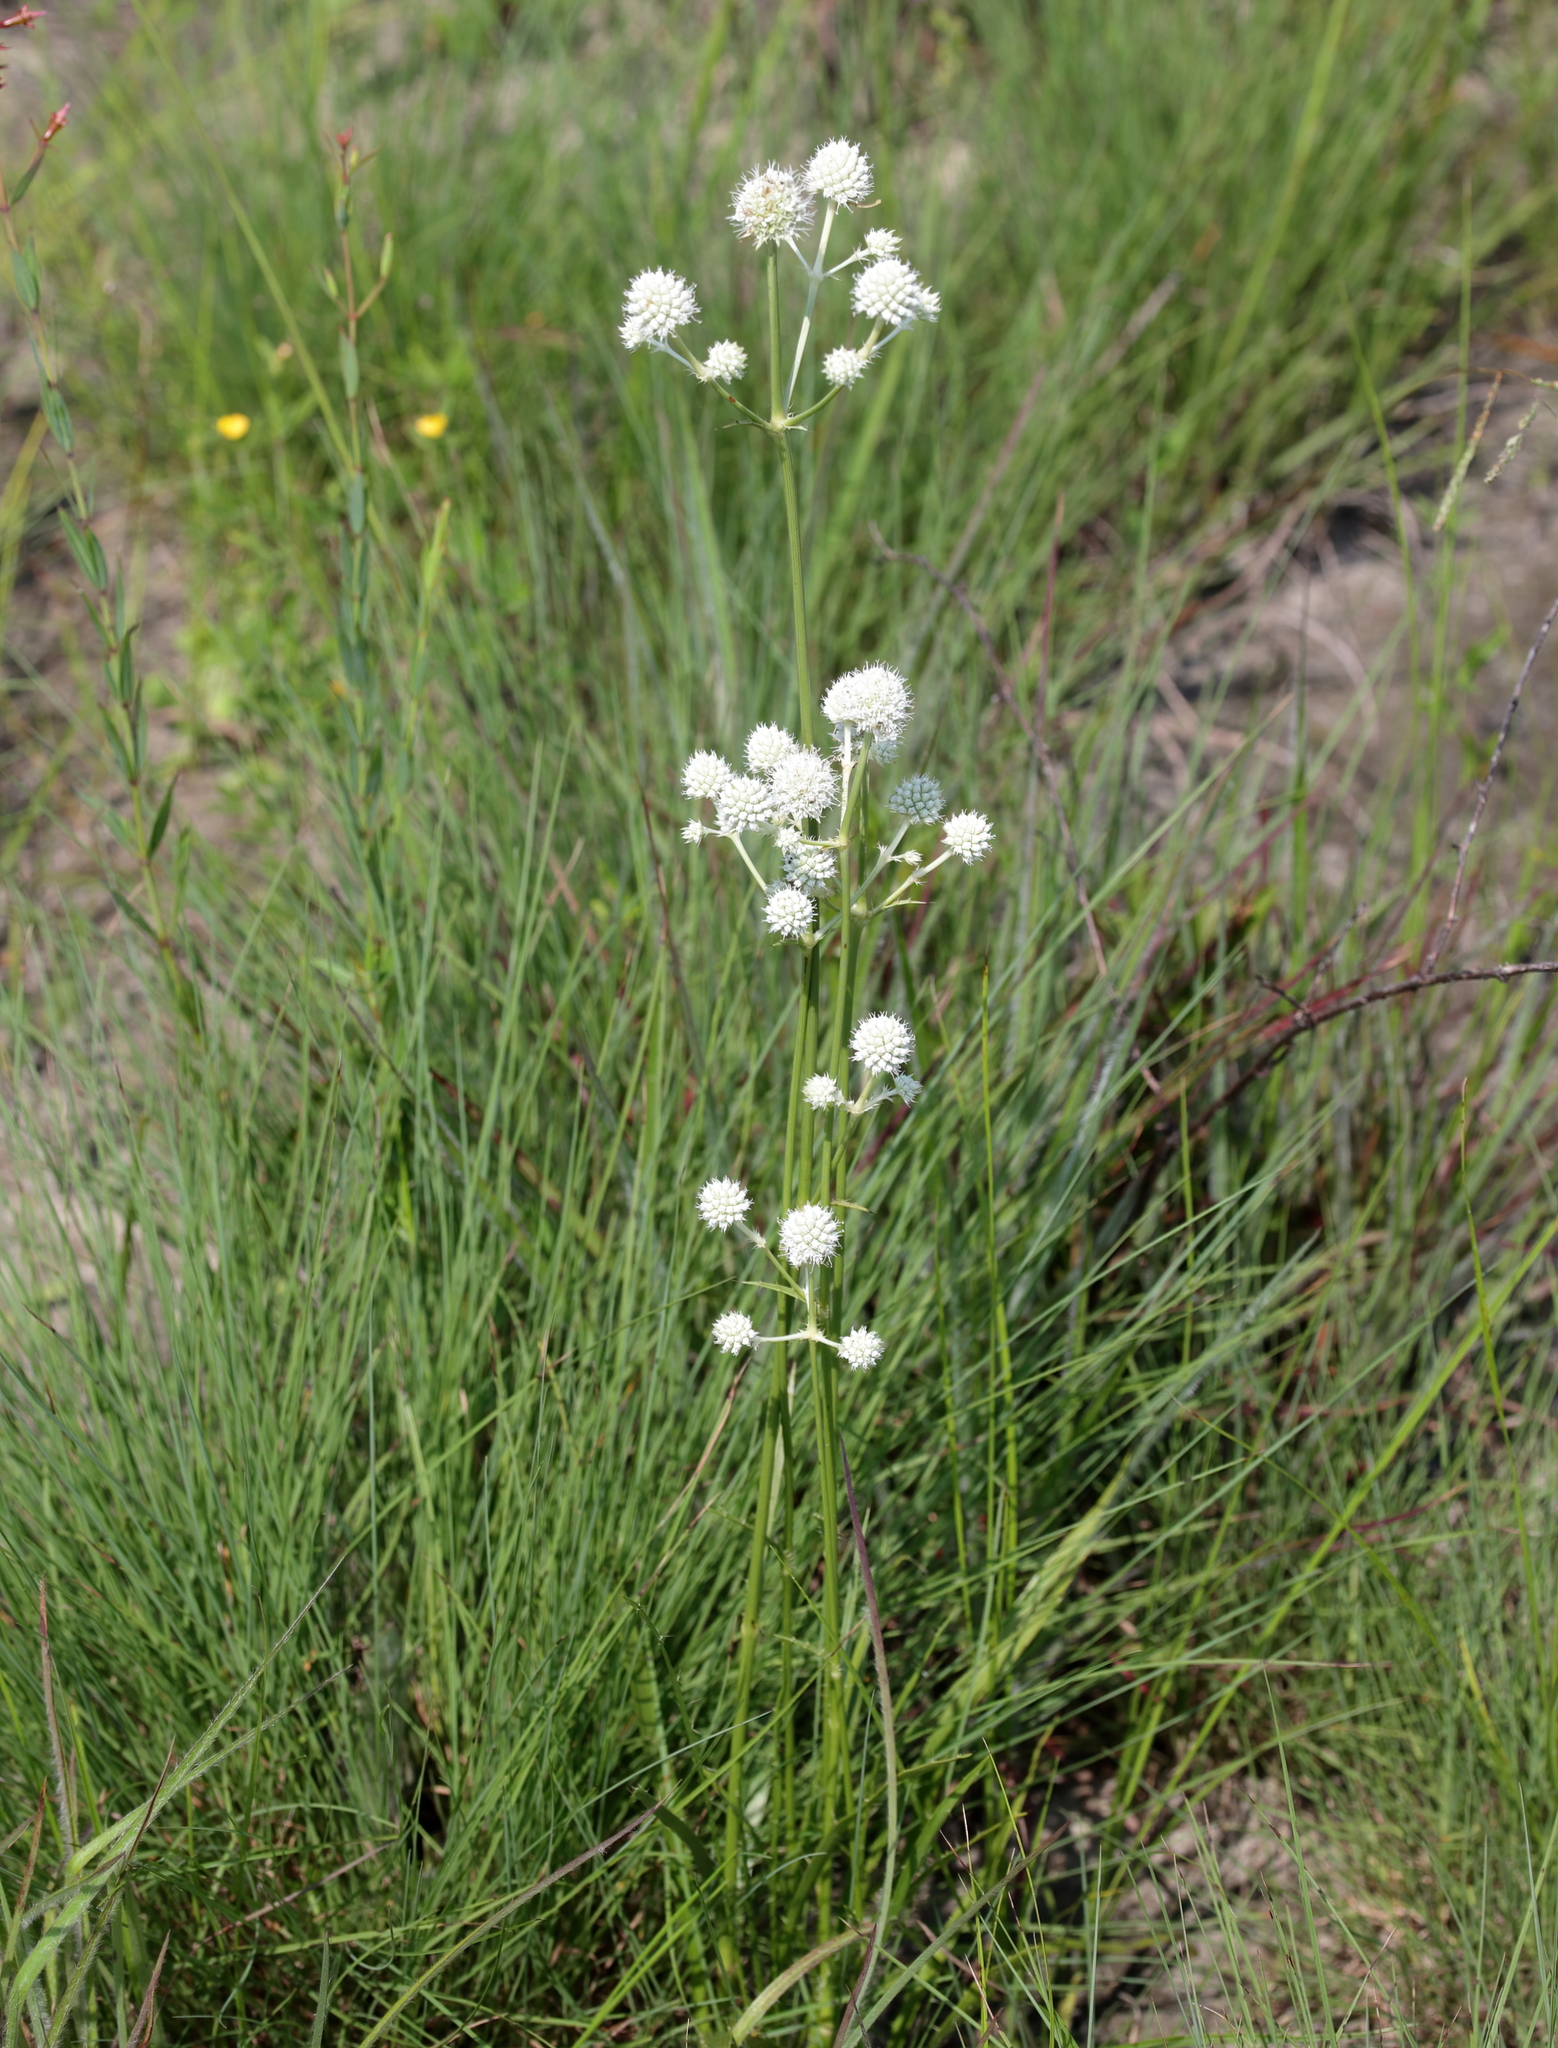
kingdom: Plantae
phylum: Tracheophyta
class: Magnoliopsida
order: Apiales
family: Apiaceae
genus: Eryngium
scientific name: Eryngium yuccifolium
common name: Button eryngo
